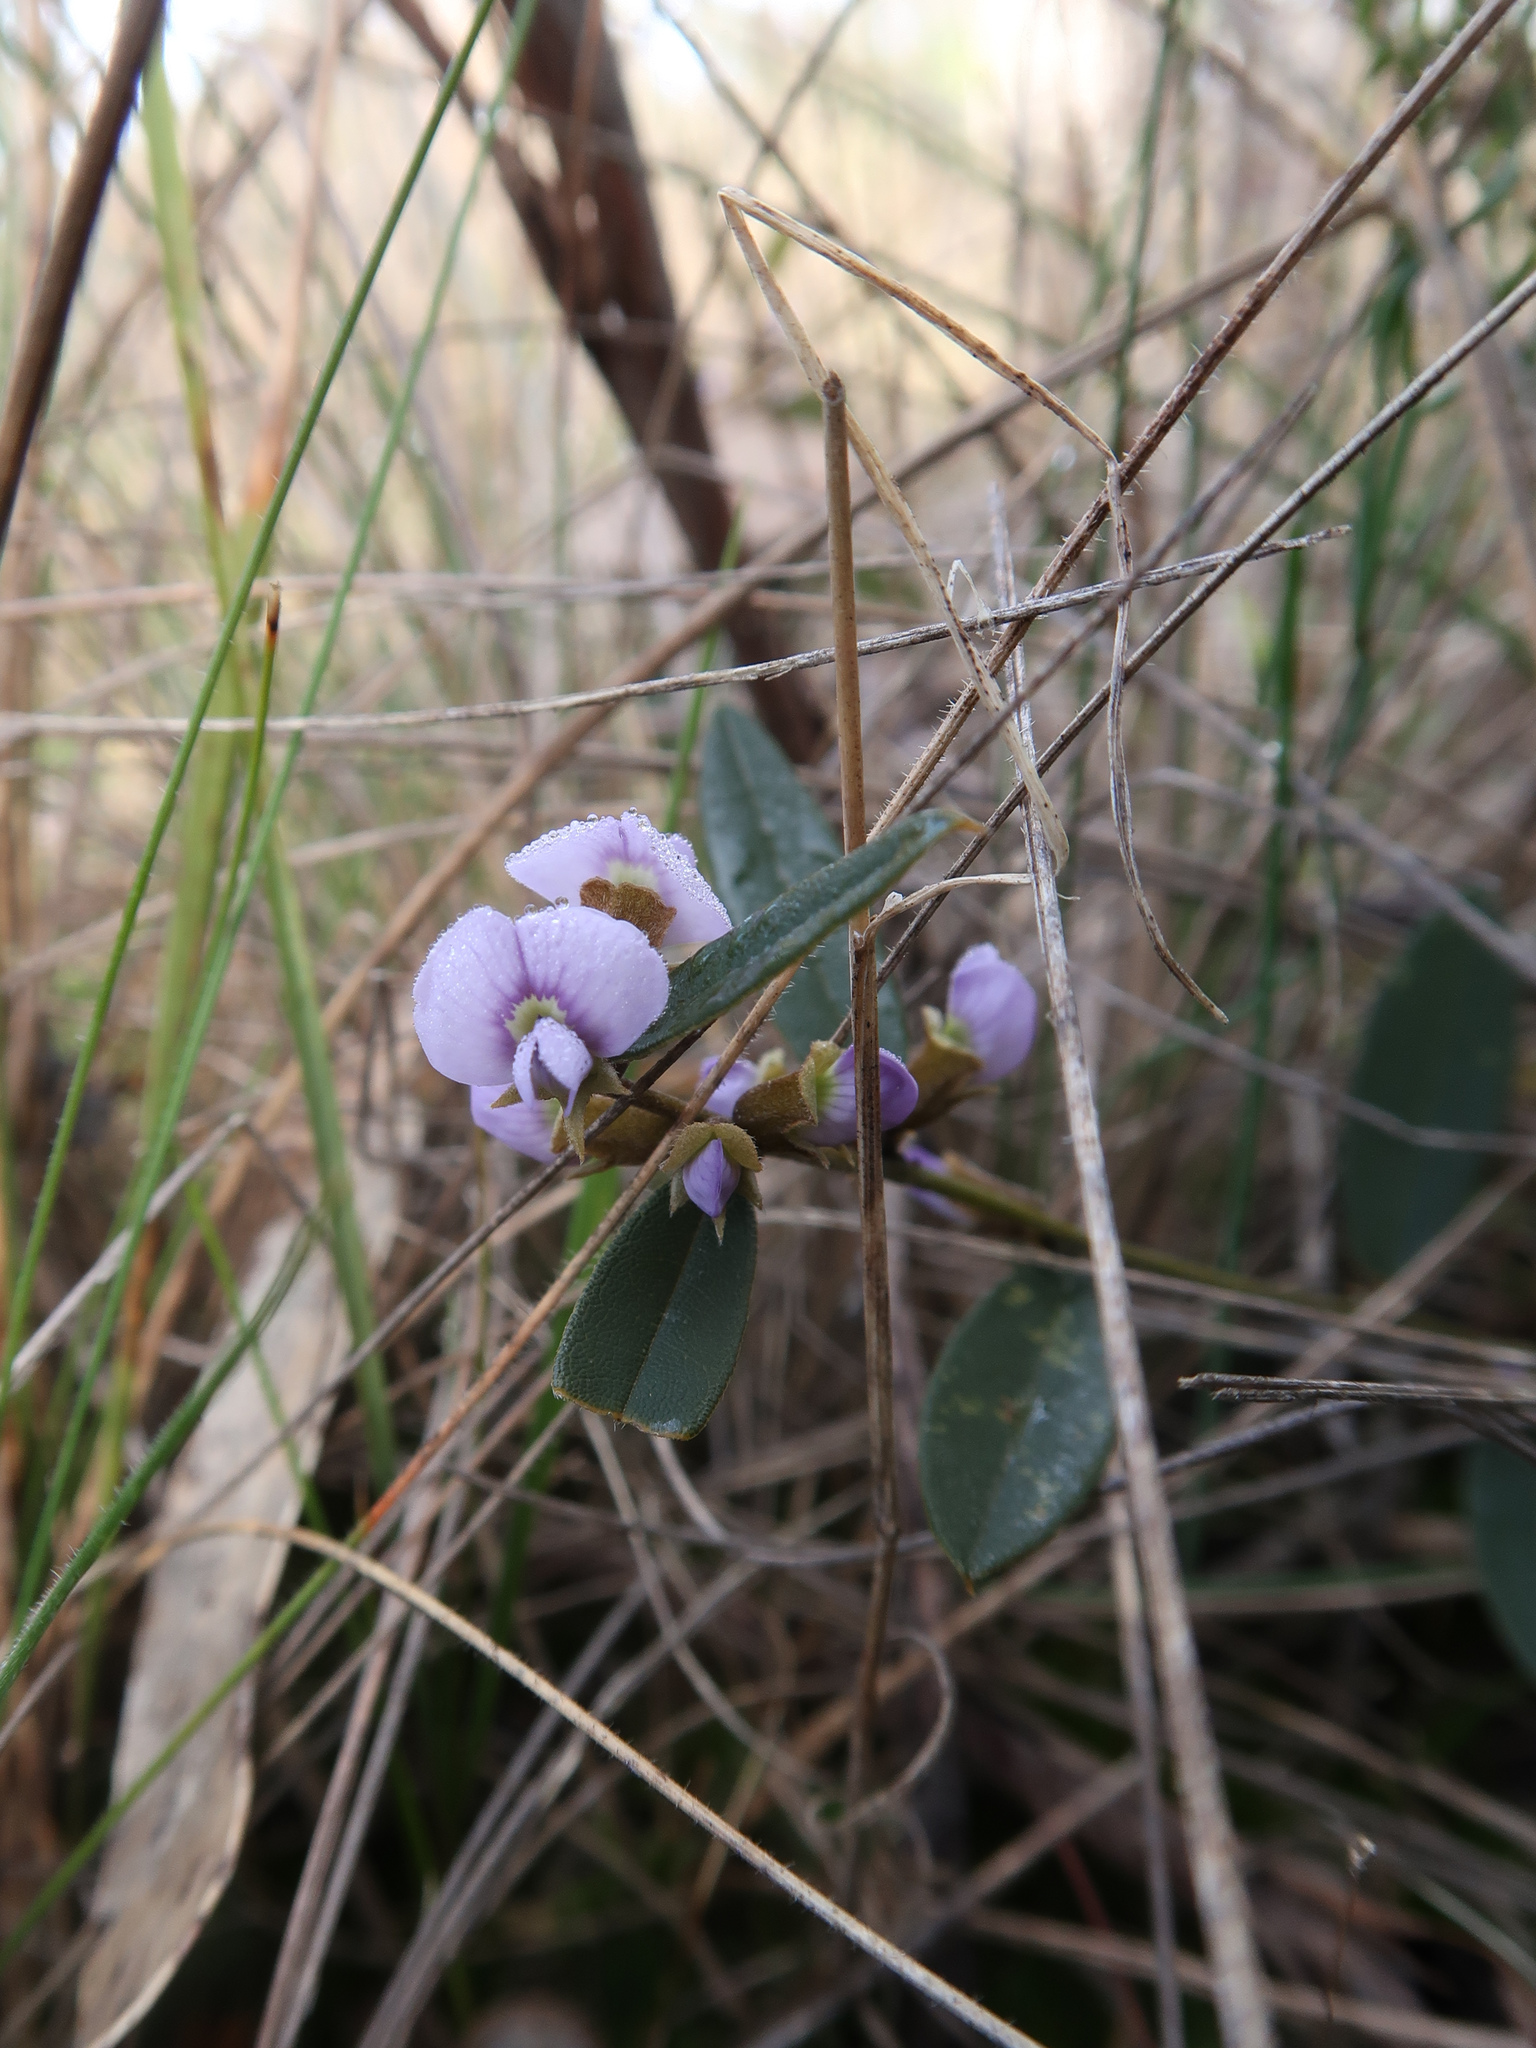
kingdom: Plantae
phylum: Tracheophyta
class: Magnoliopsida
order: Fabales
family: Fabaceae
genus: Hovea
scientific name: Hovea heterophylla
